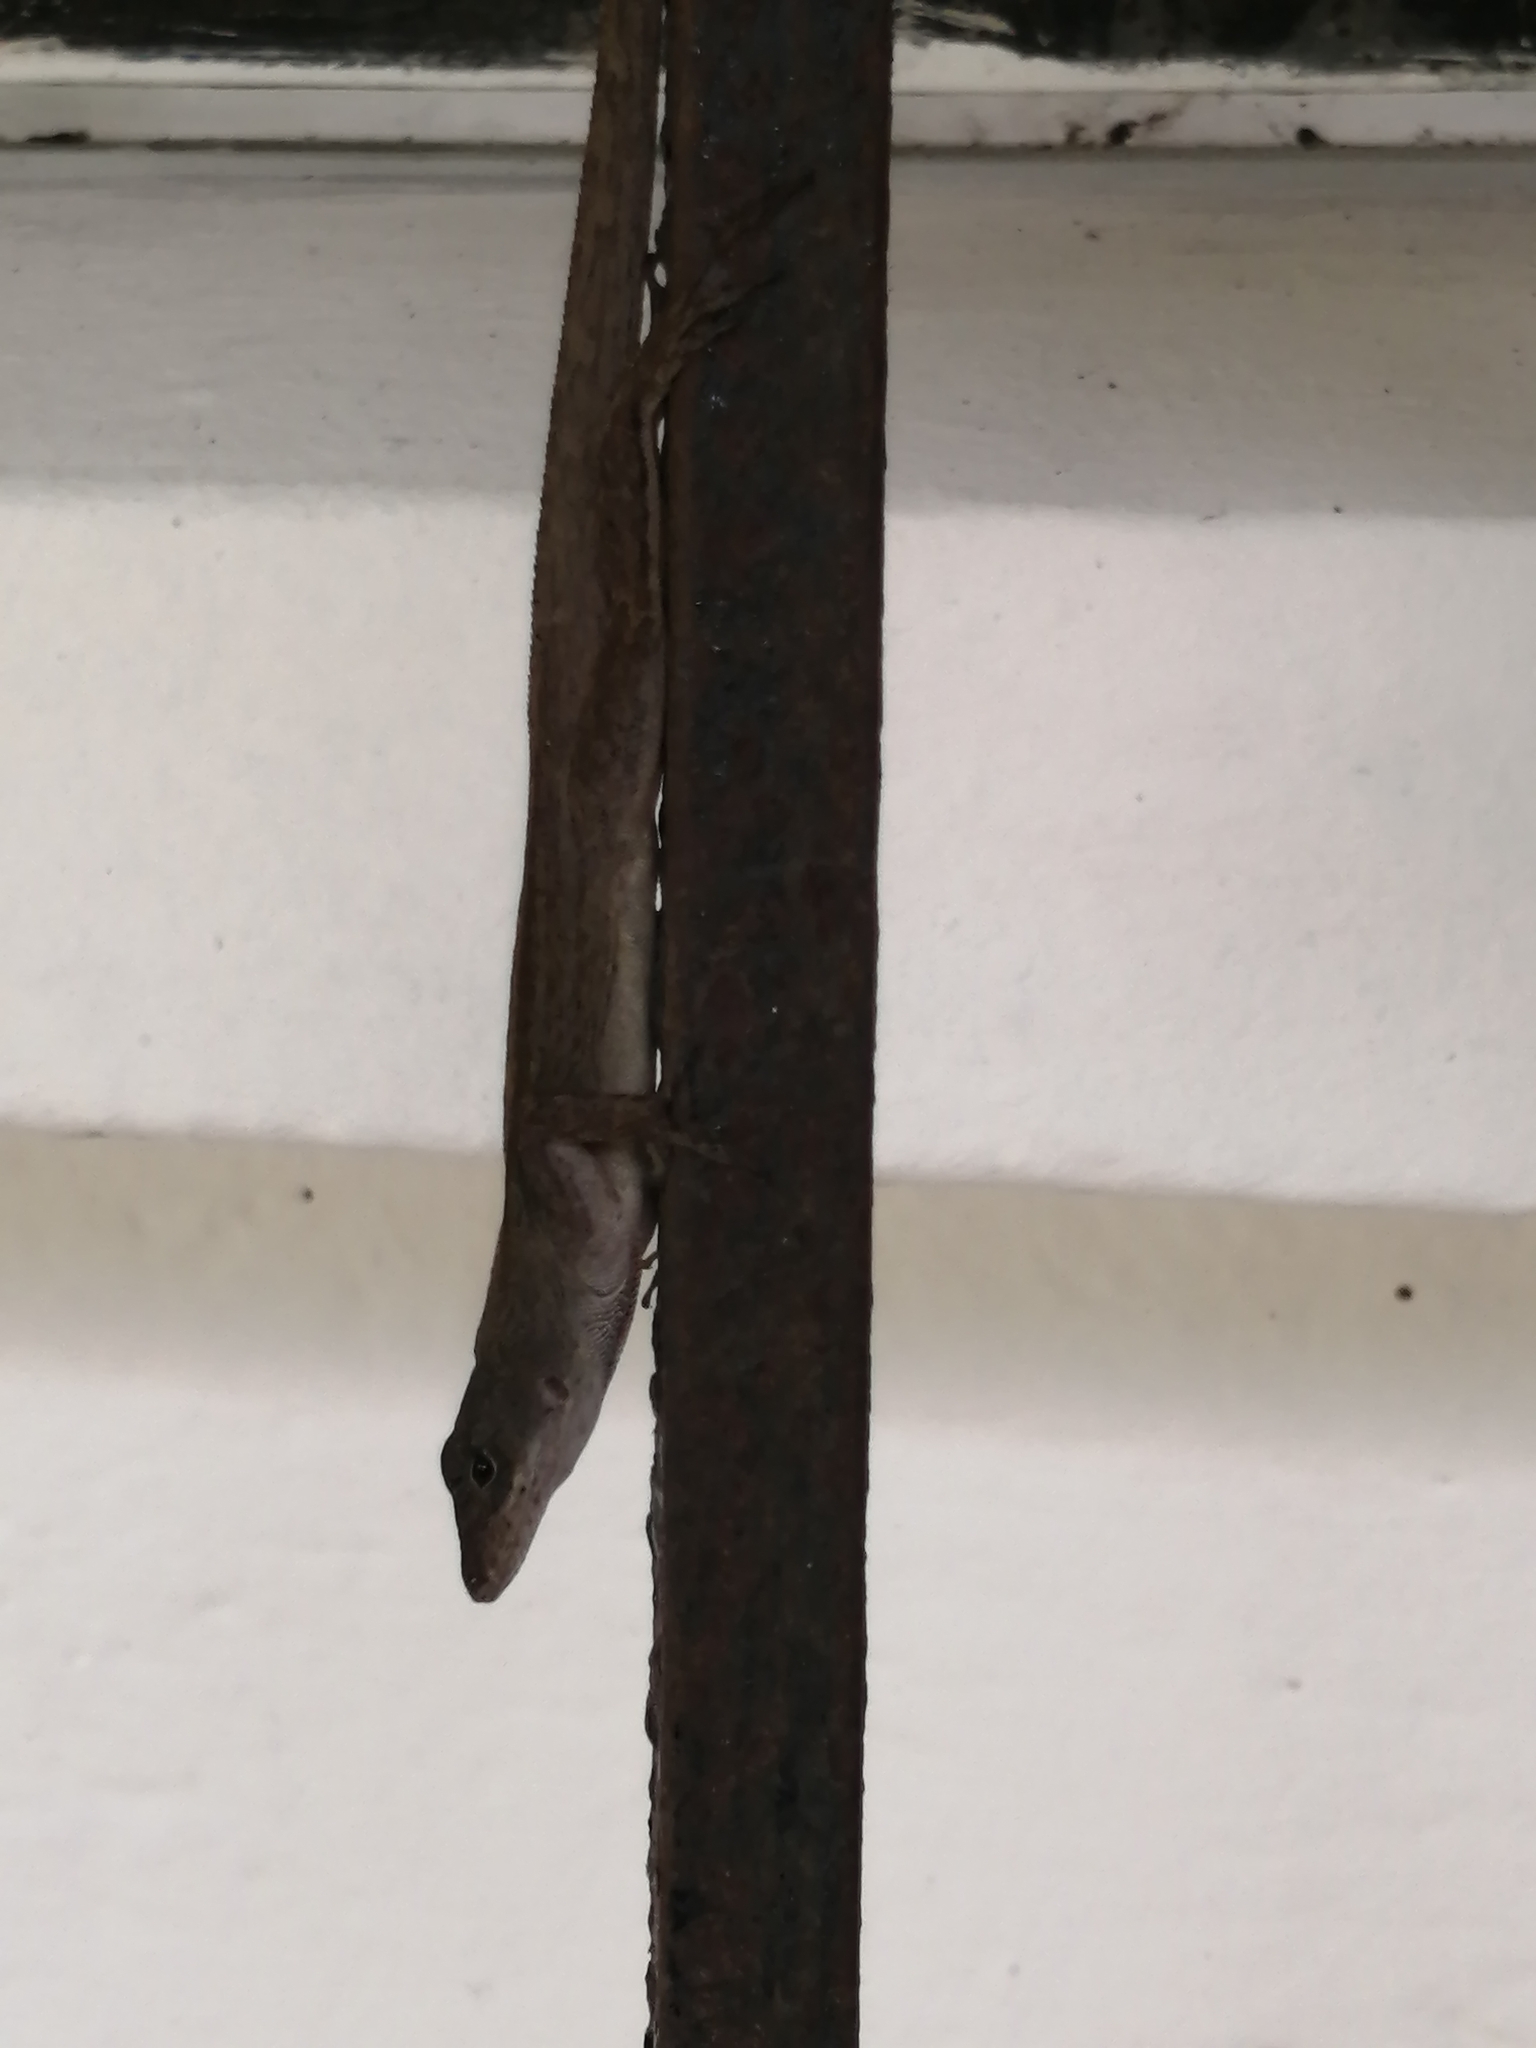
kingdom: Animalia
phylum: Chordata
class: Squamata
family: Dactyloidae
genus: Anolis
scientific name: Anolis sagrei
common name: Brown anole
